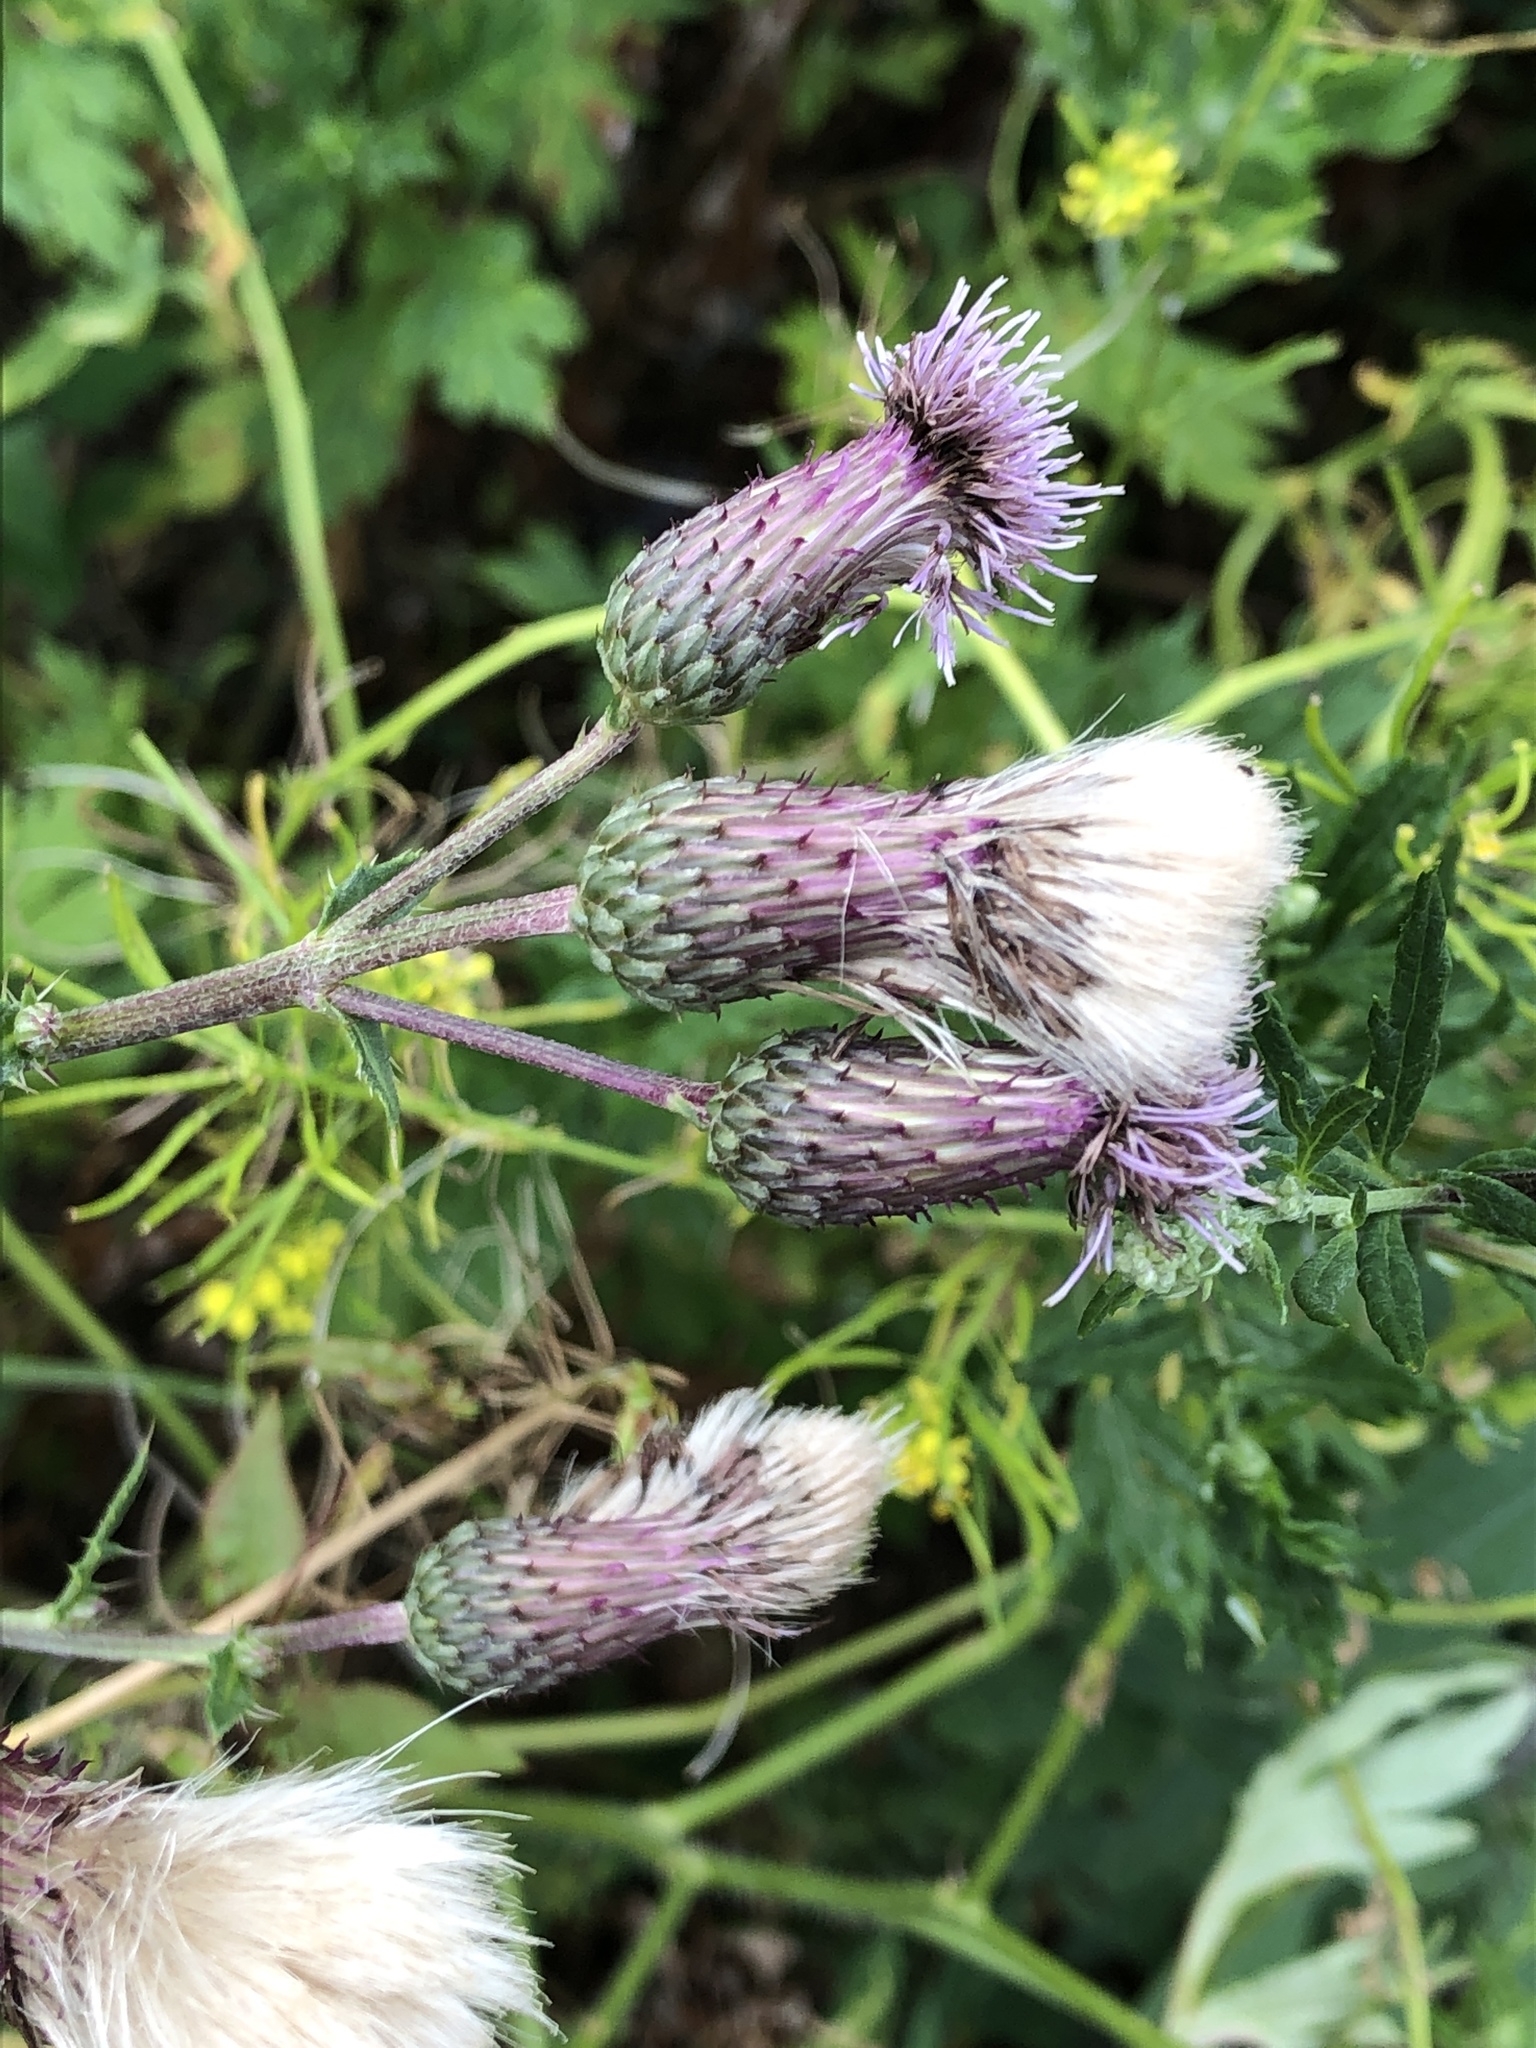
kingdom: Plantae
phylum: Tracheophyta
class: Magnoliopsida
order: Asterales
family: Asteraceae
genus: Cirsium
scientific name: Cirsium arvense
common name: Creeping thistle
